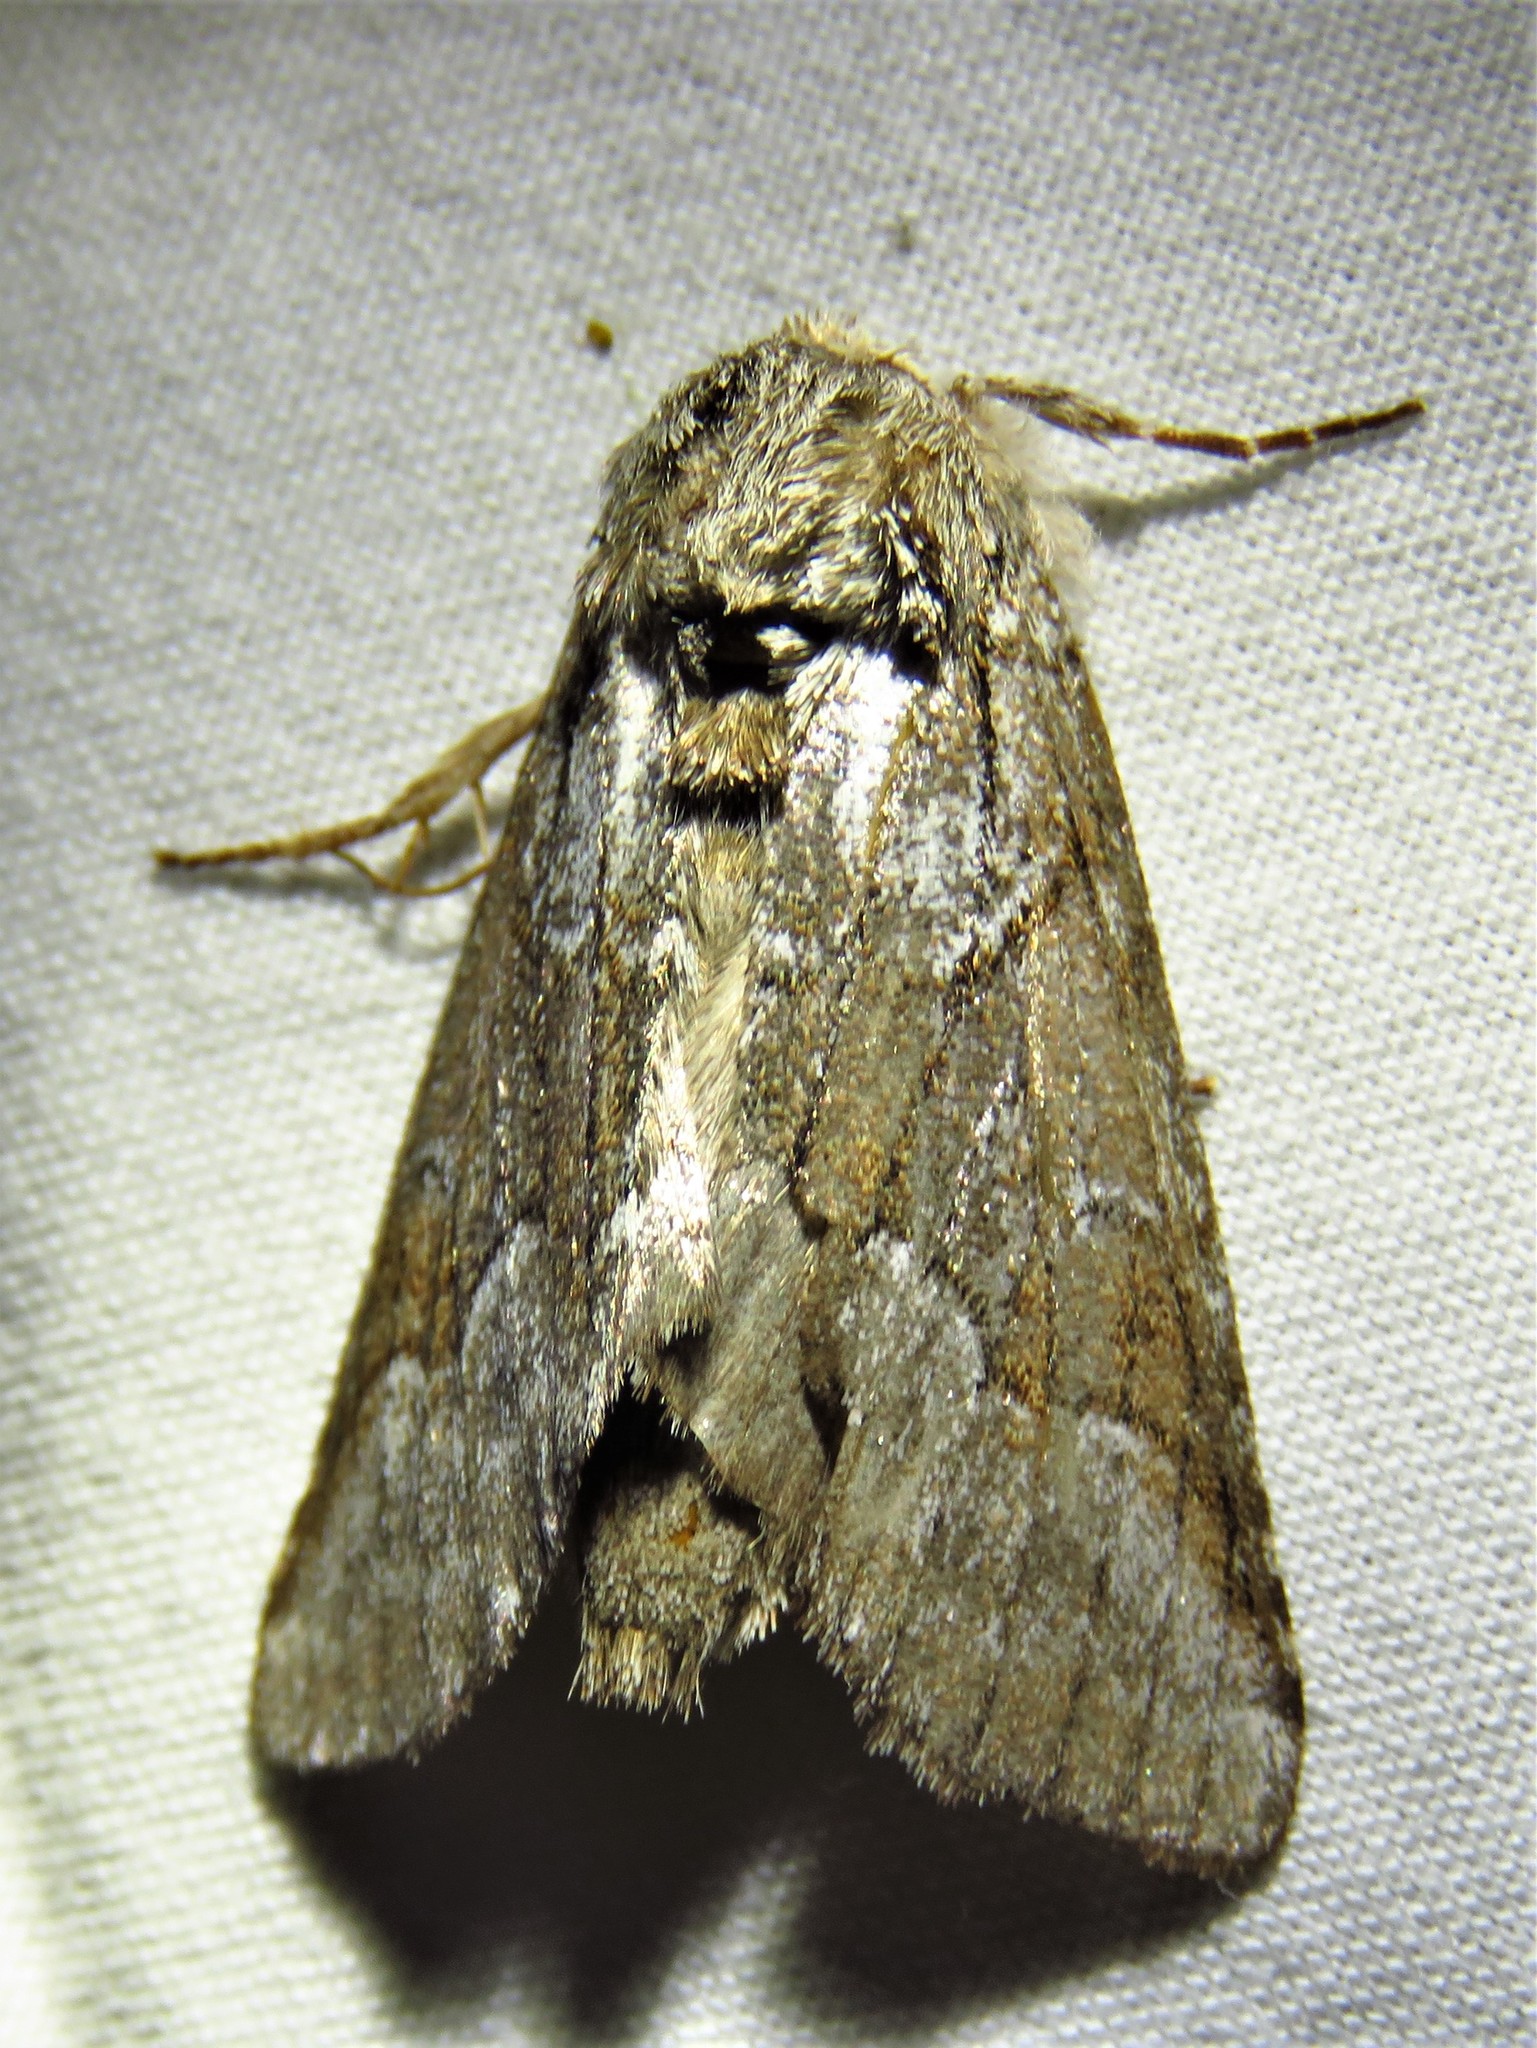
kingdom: Animalia
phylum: Arthropoda
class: Insecta
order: Lepidoptera
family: Notodontidae
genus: Lochmaeus
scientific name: Lochmaeus bilineata
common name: Double-lined prominent
